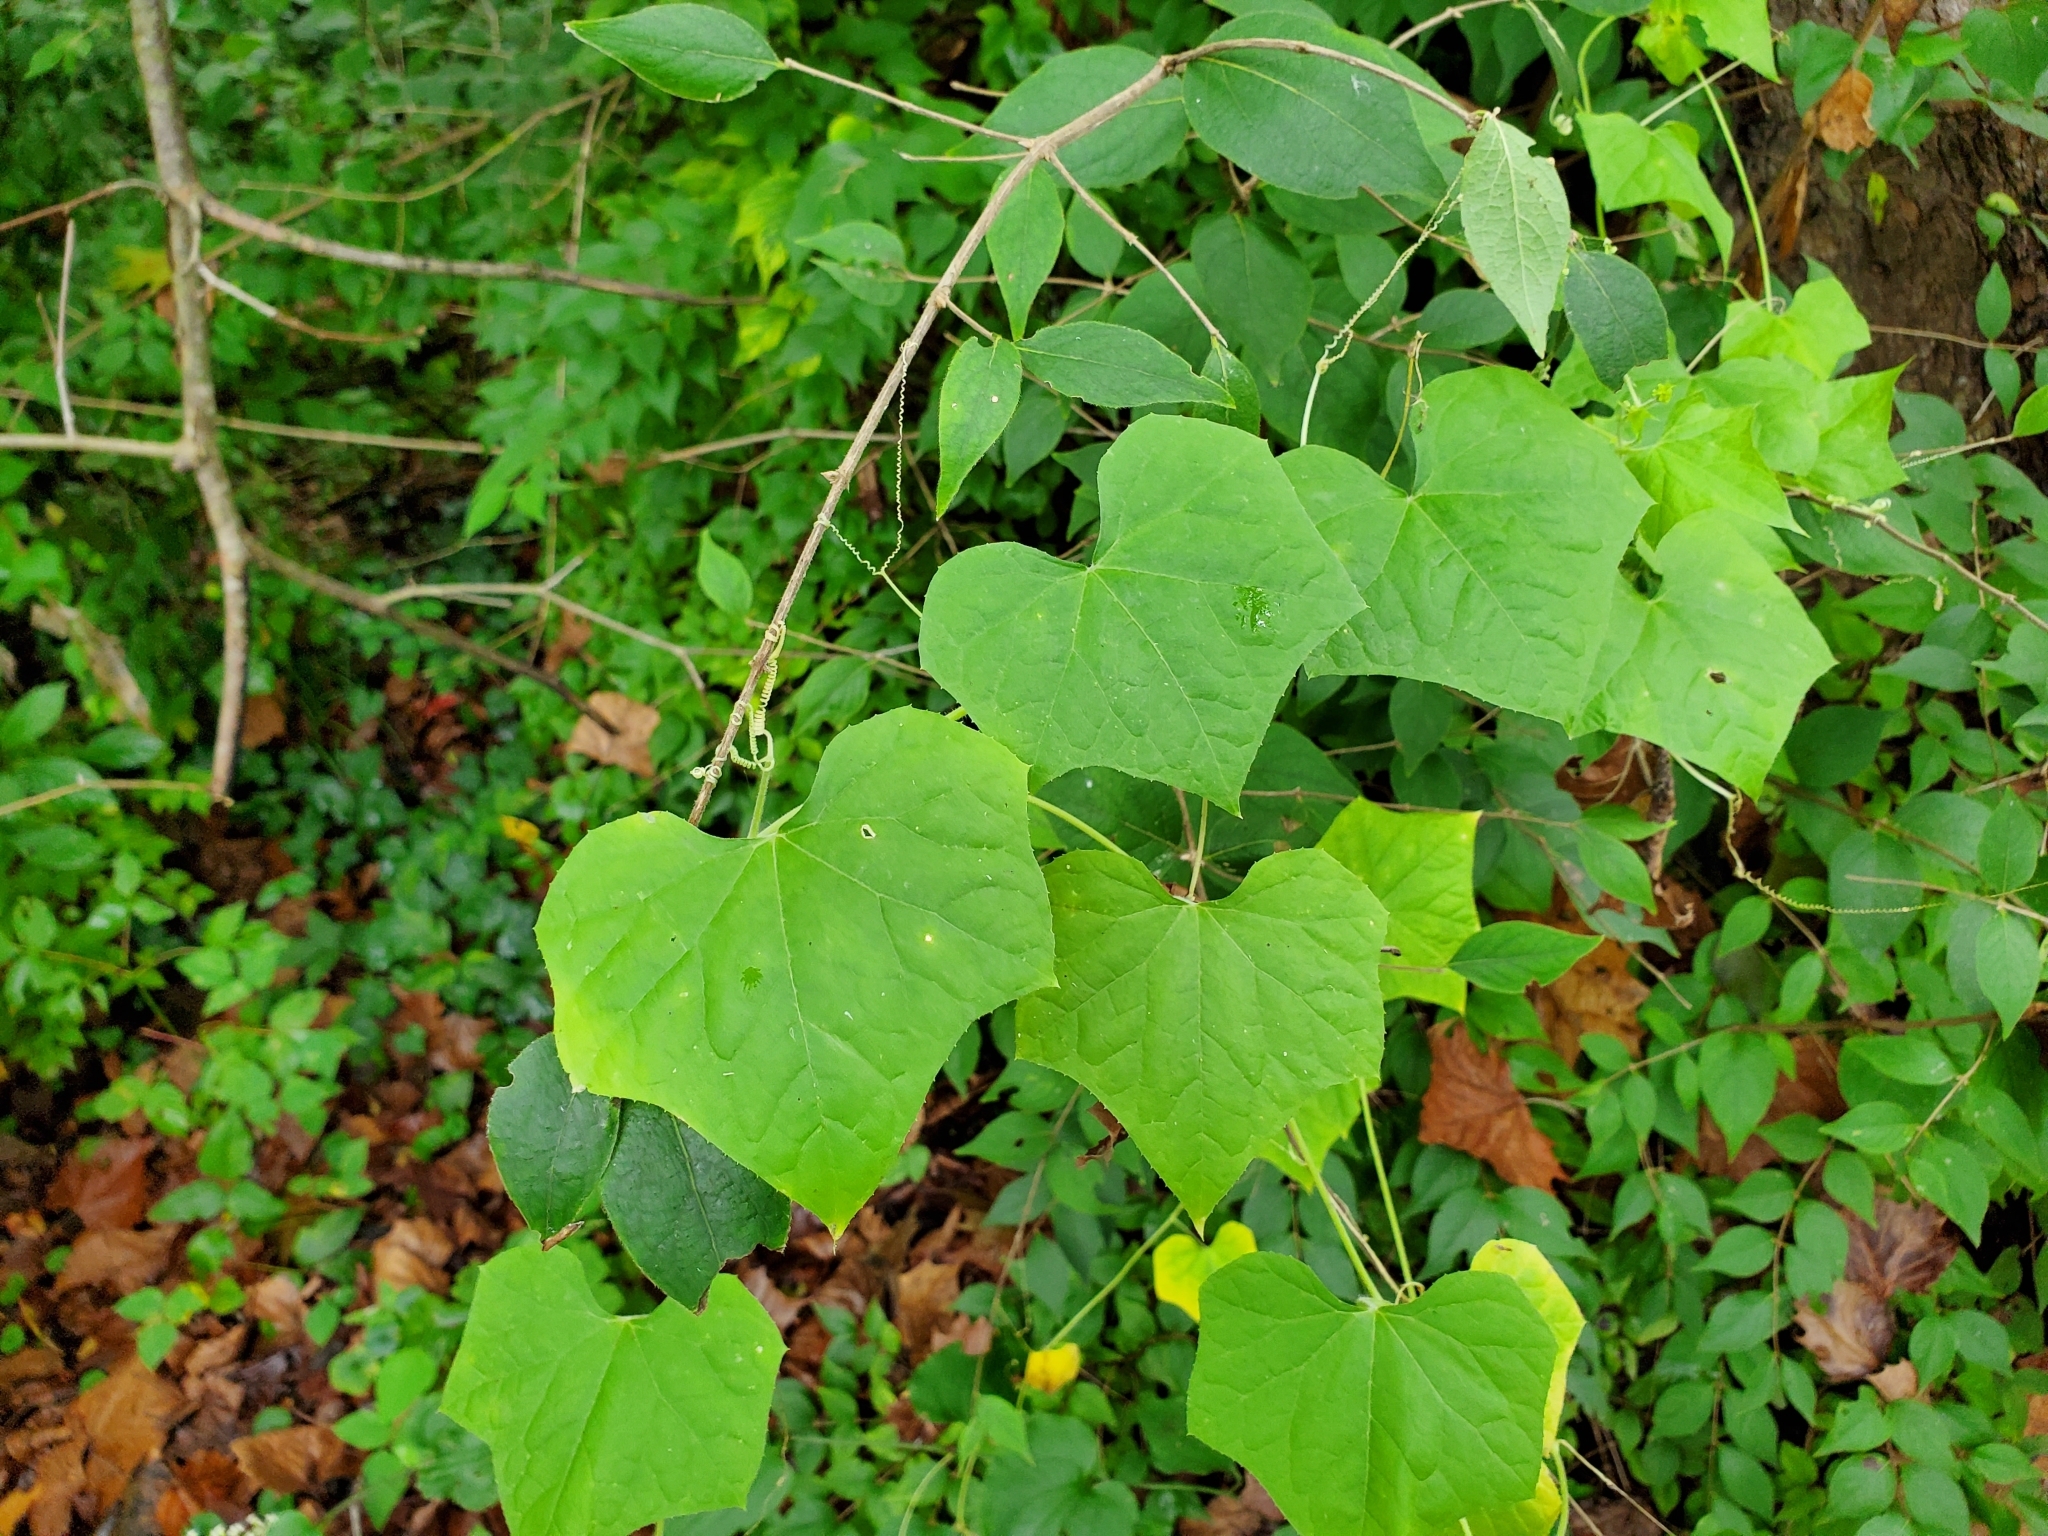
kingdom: Plantae
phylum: Tracheophyta
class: Magnoliopsida
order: Cucurbitales
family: Cucurbitaceae
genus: Sicyos
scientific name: Sicyos angulatus
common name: Angled burr cucumber
